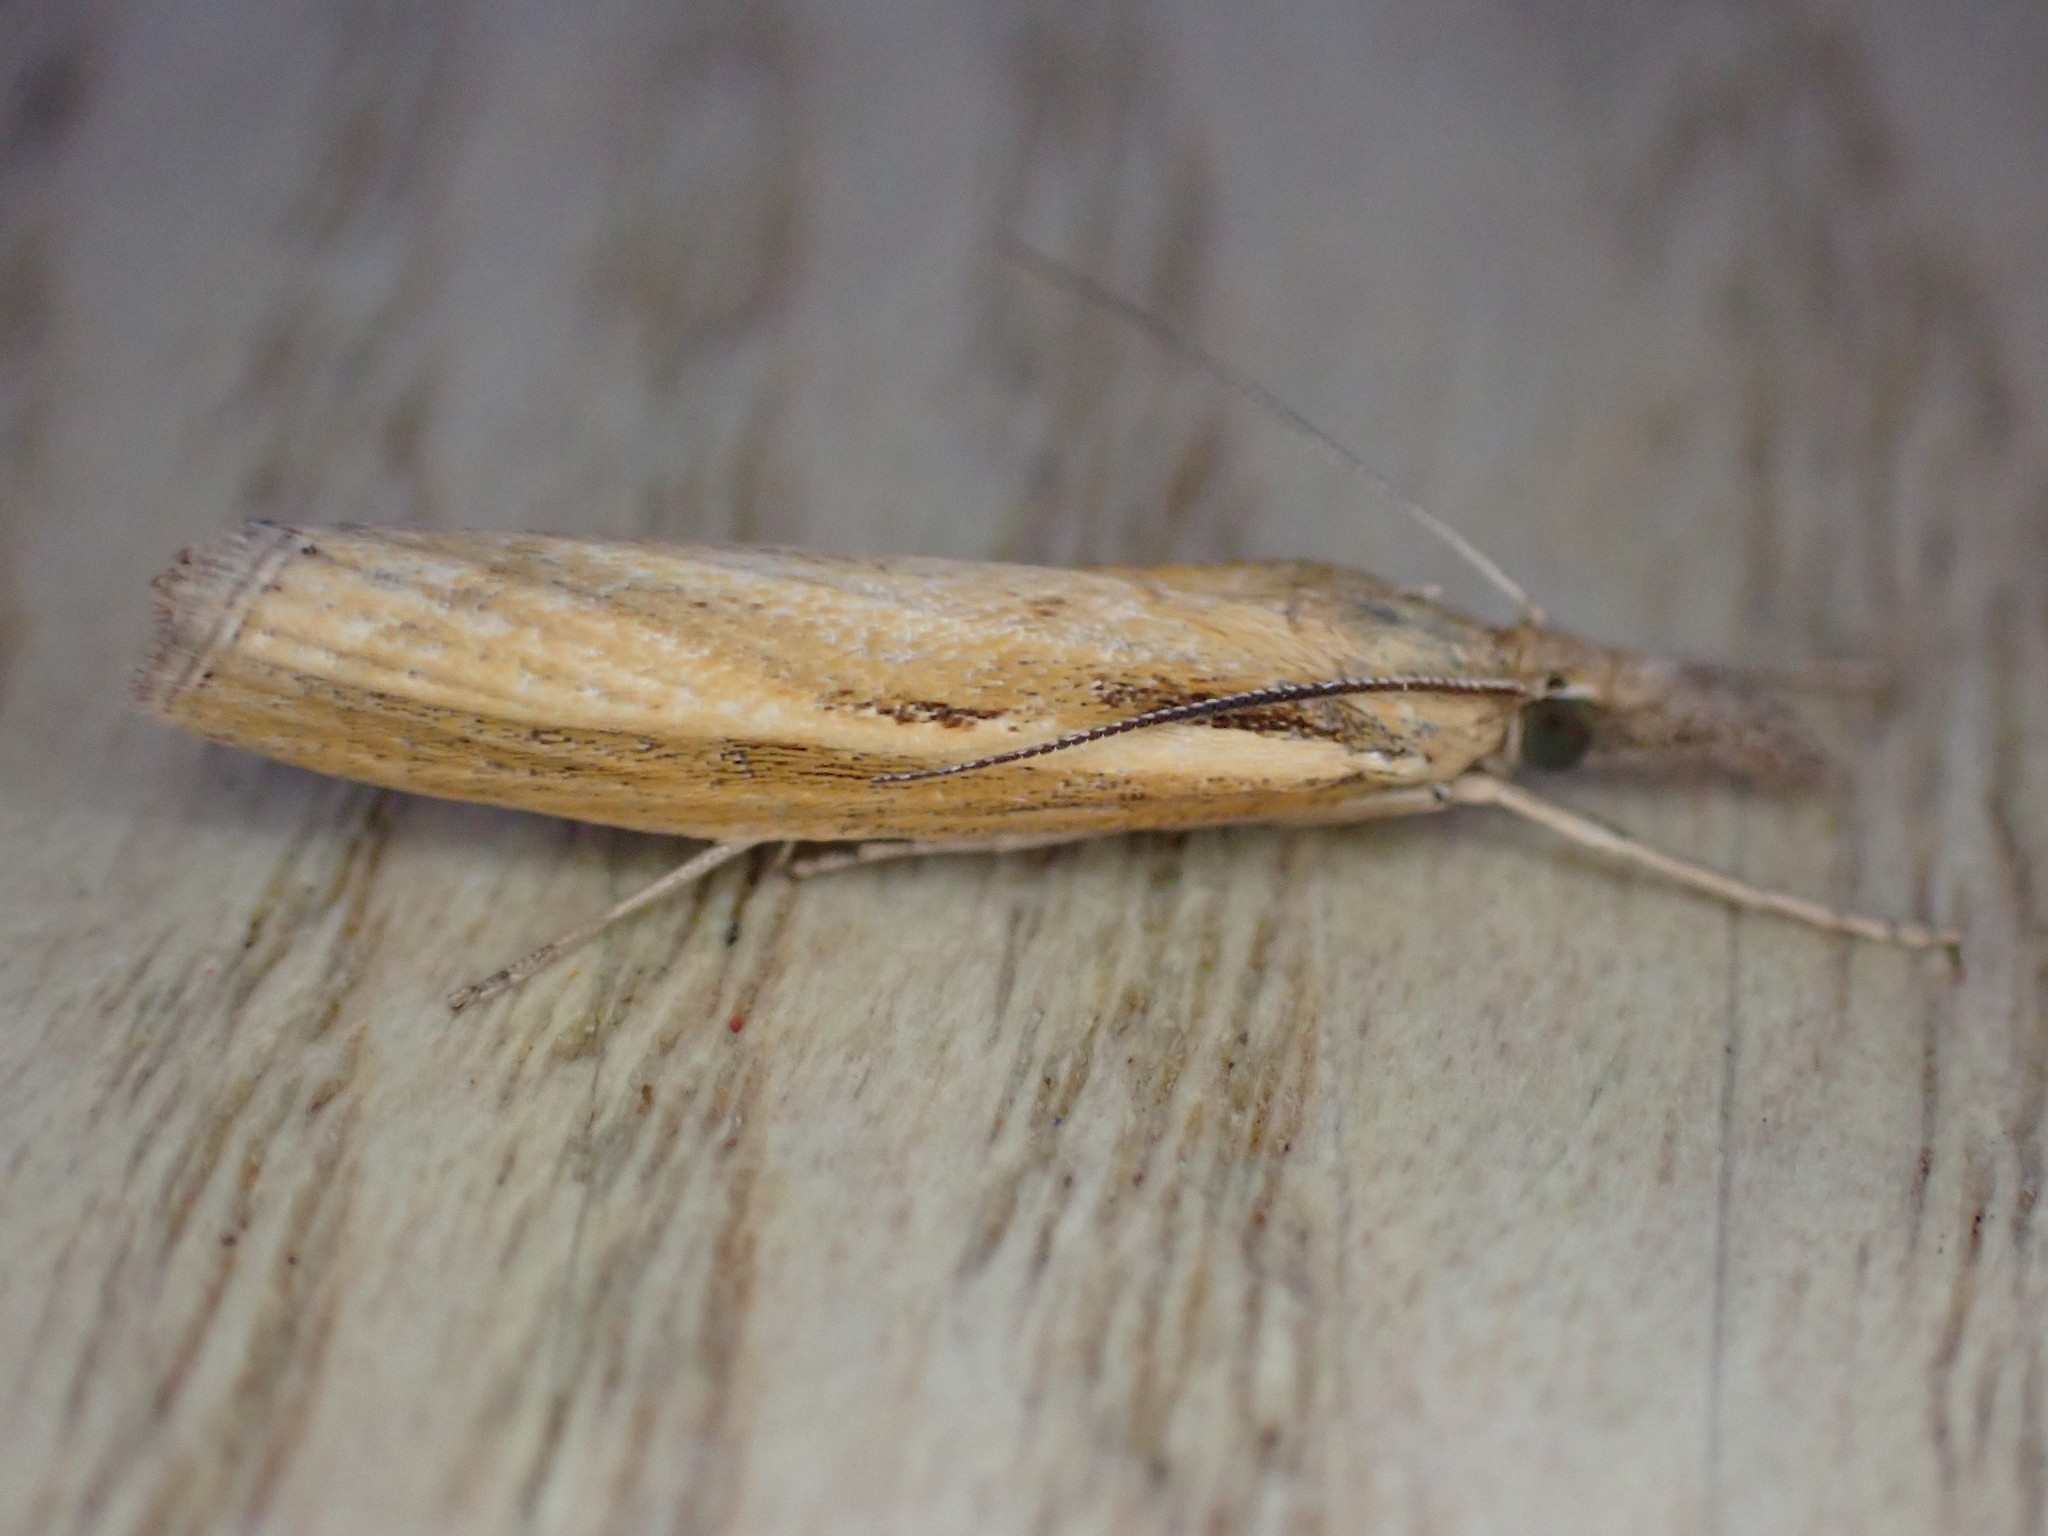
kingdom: Animalia
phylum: Arthropoda
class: Insecta
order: Lepidoptera
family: Crambidae
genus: Agriphila
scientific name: Agriphila tristellus
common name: Common grass-veneer
